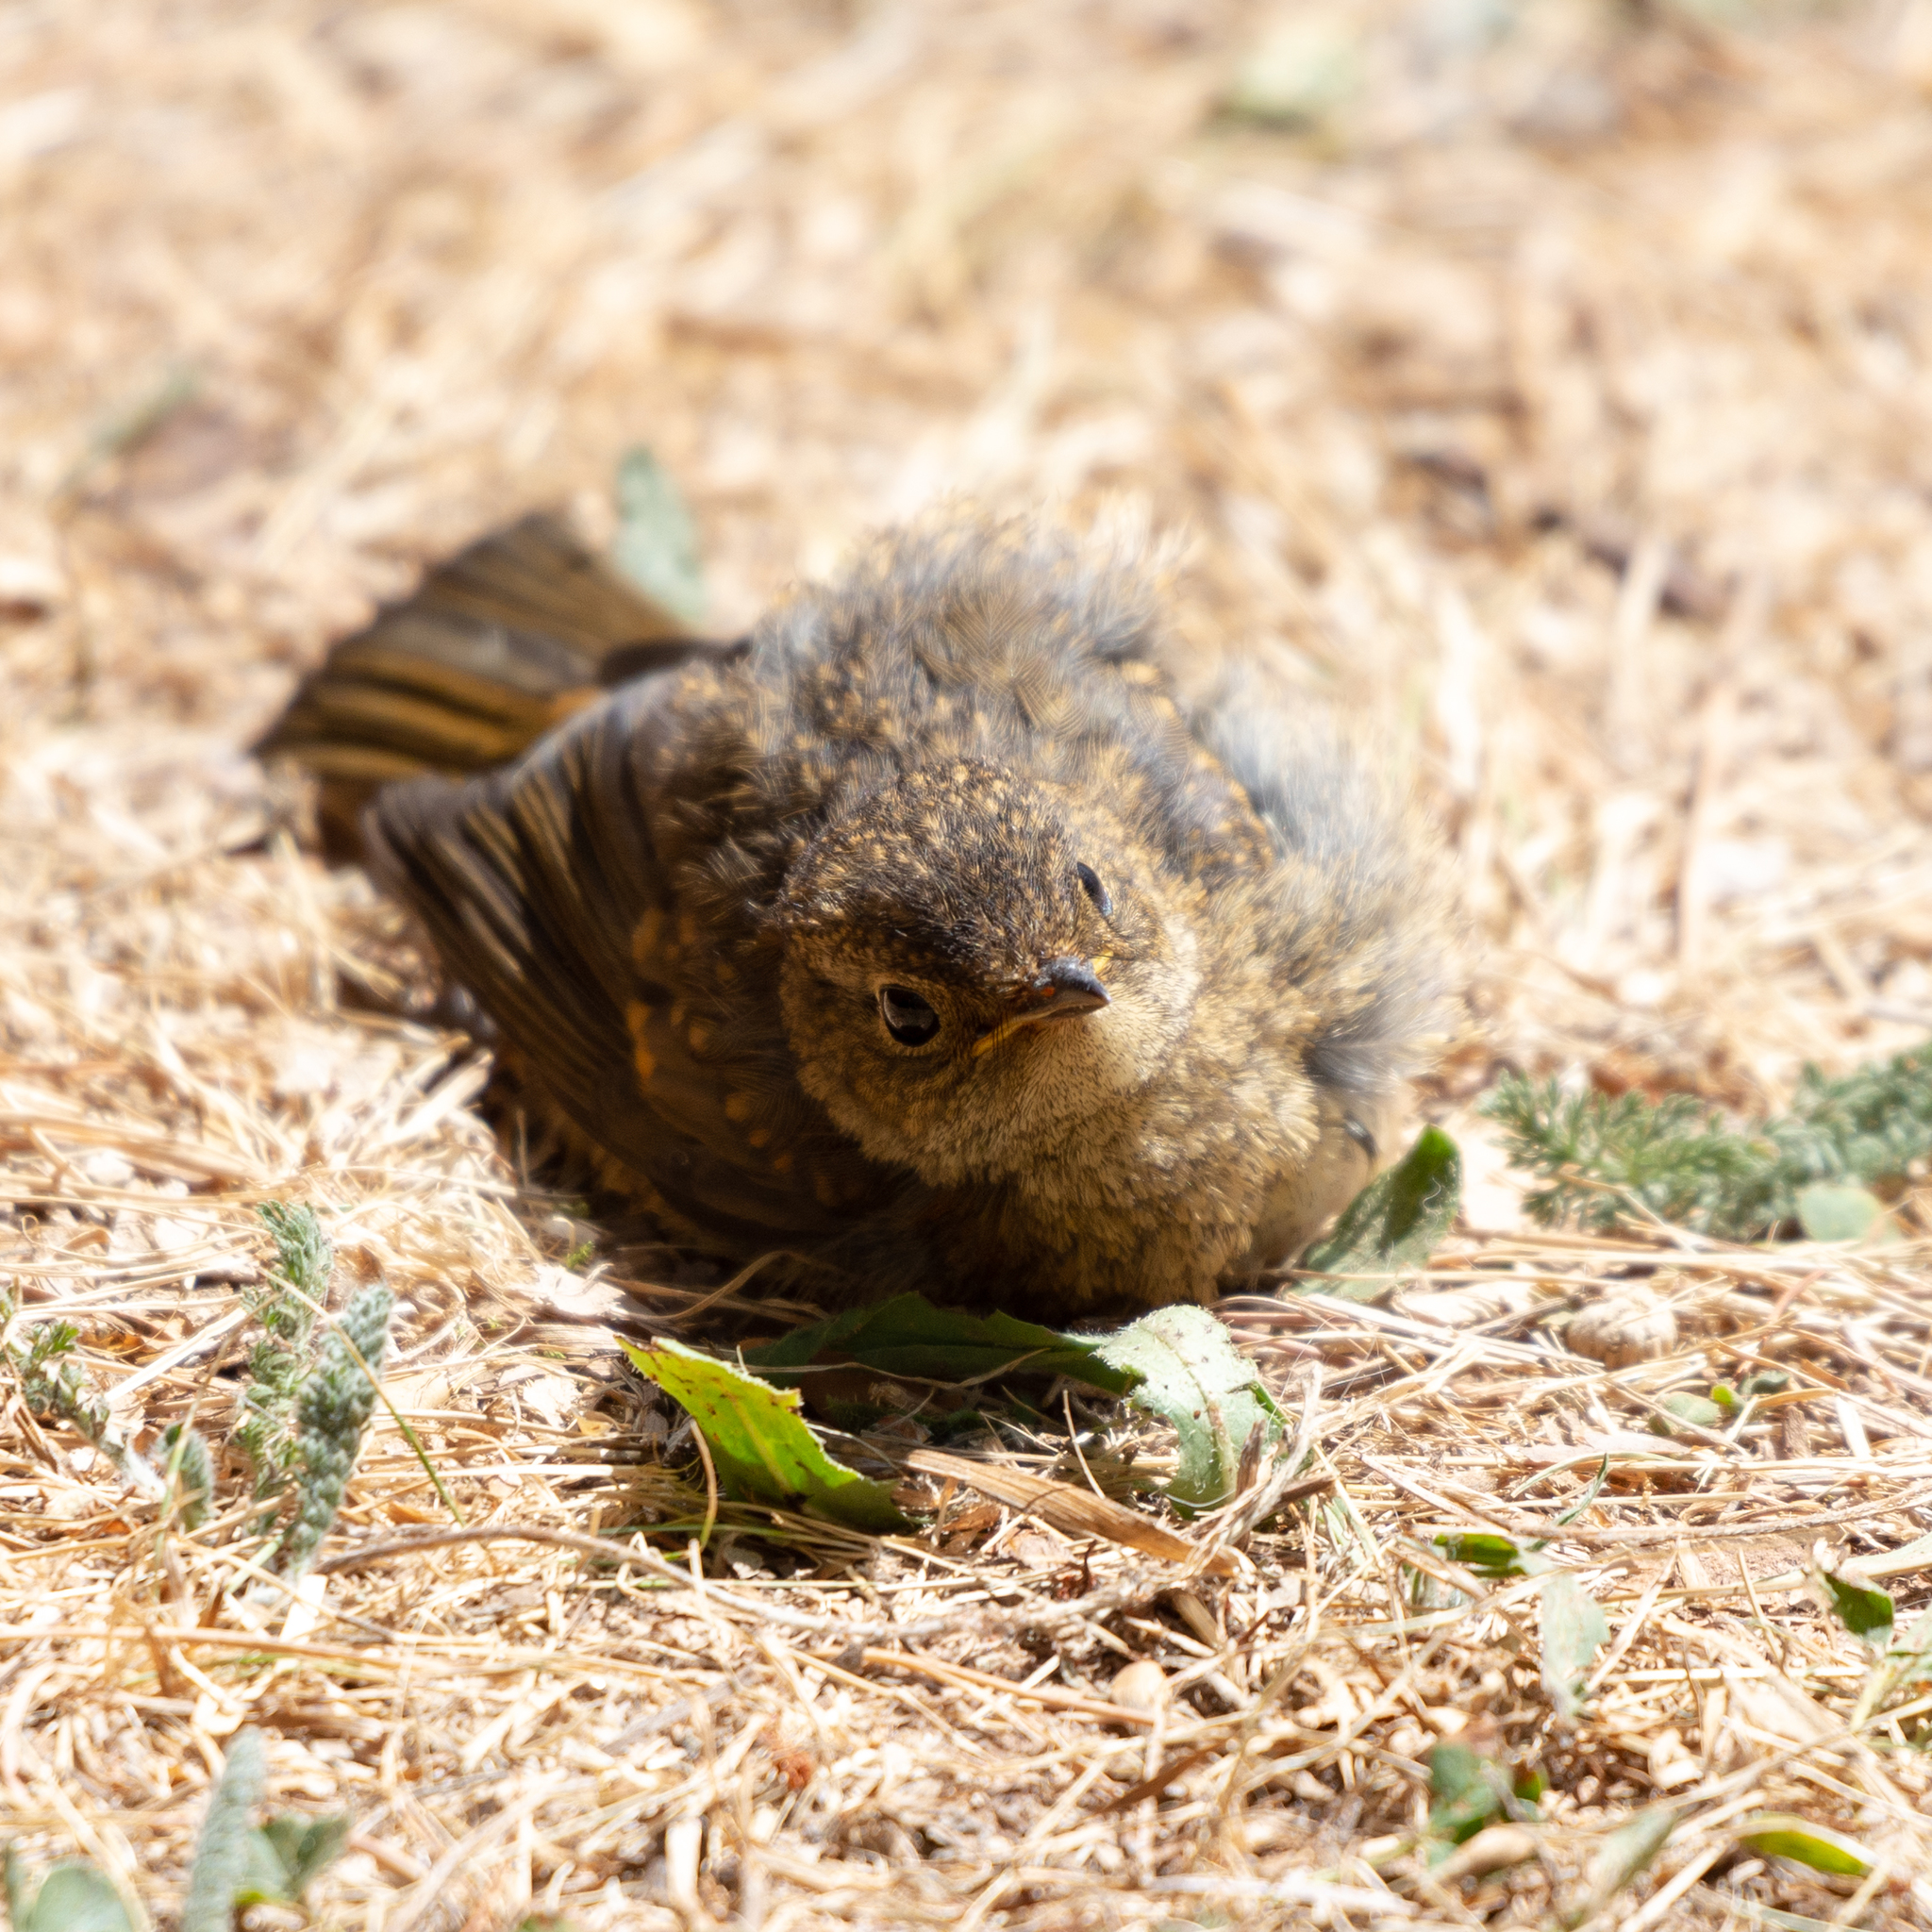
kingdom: Animalia
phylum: Chordata
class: Aves
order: Passeriformes
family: Muscicapidae
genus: Erithacus
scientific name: Erithacus rubecula
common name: European robin
